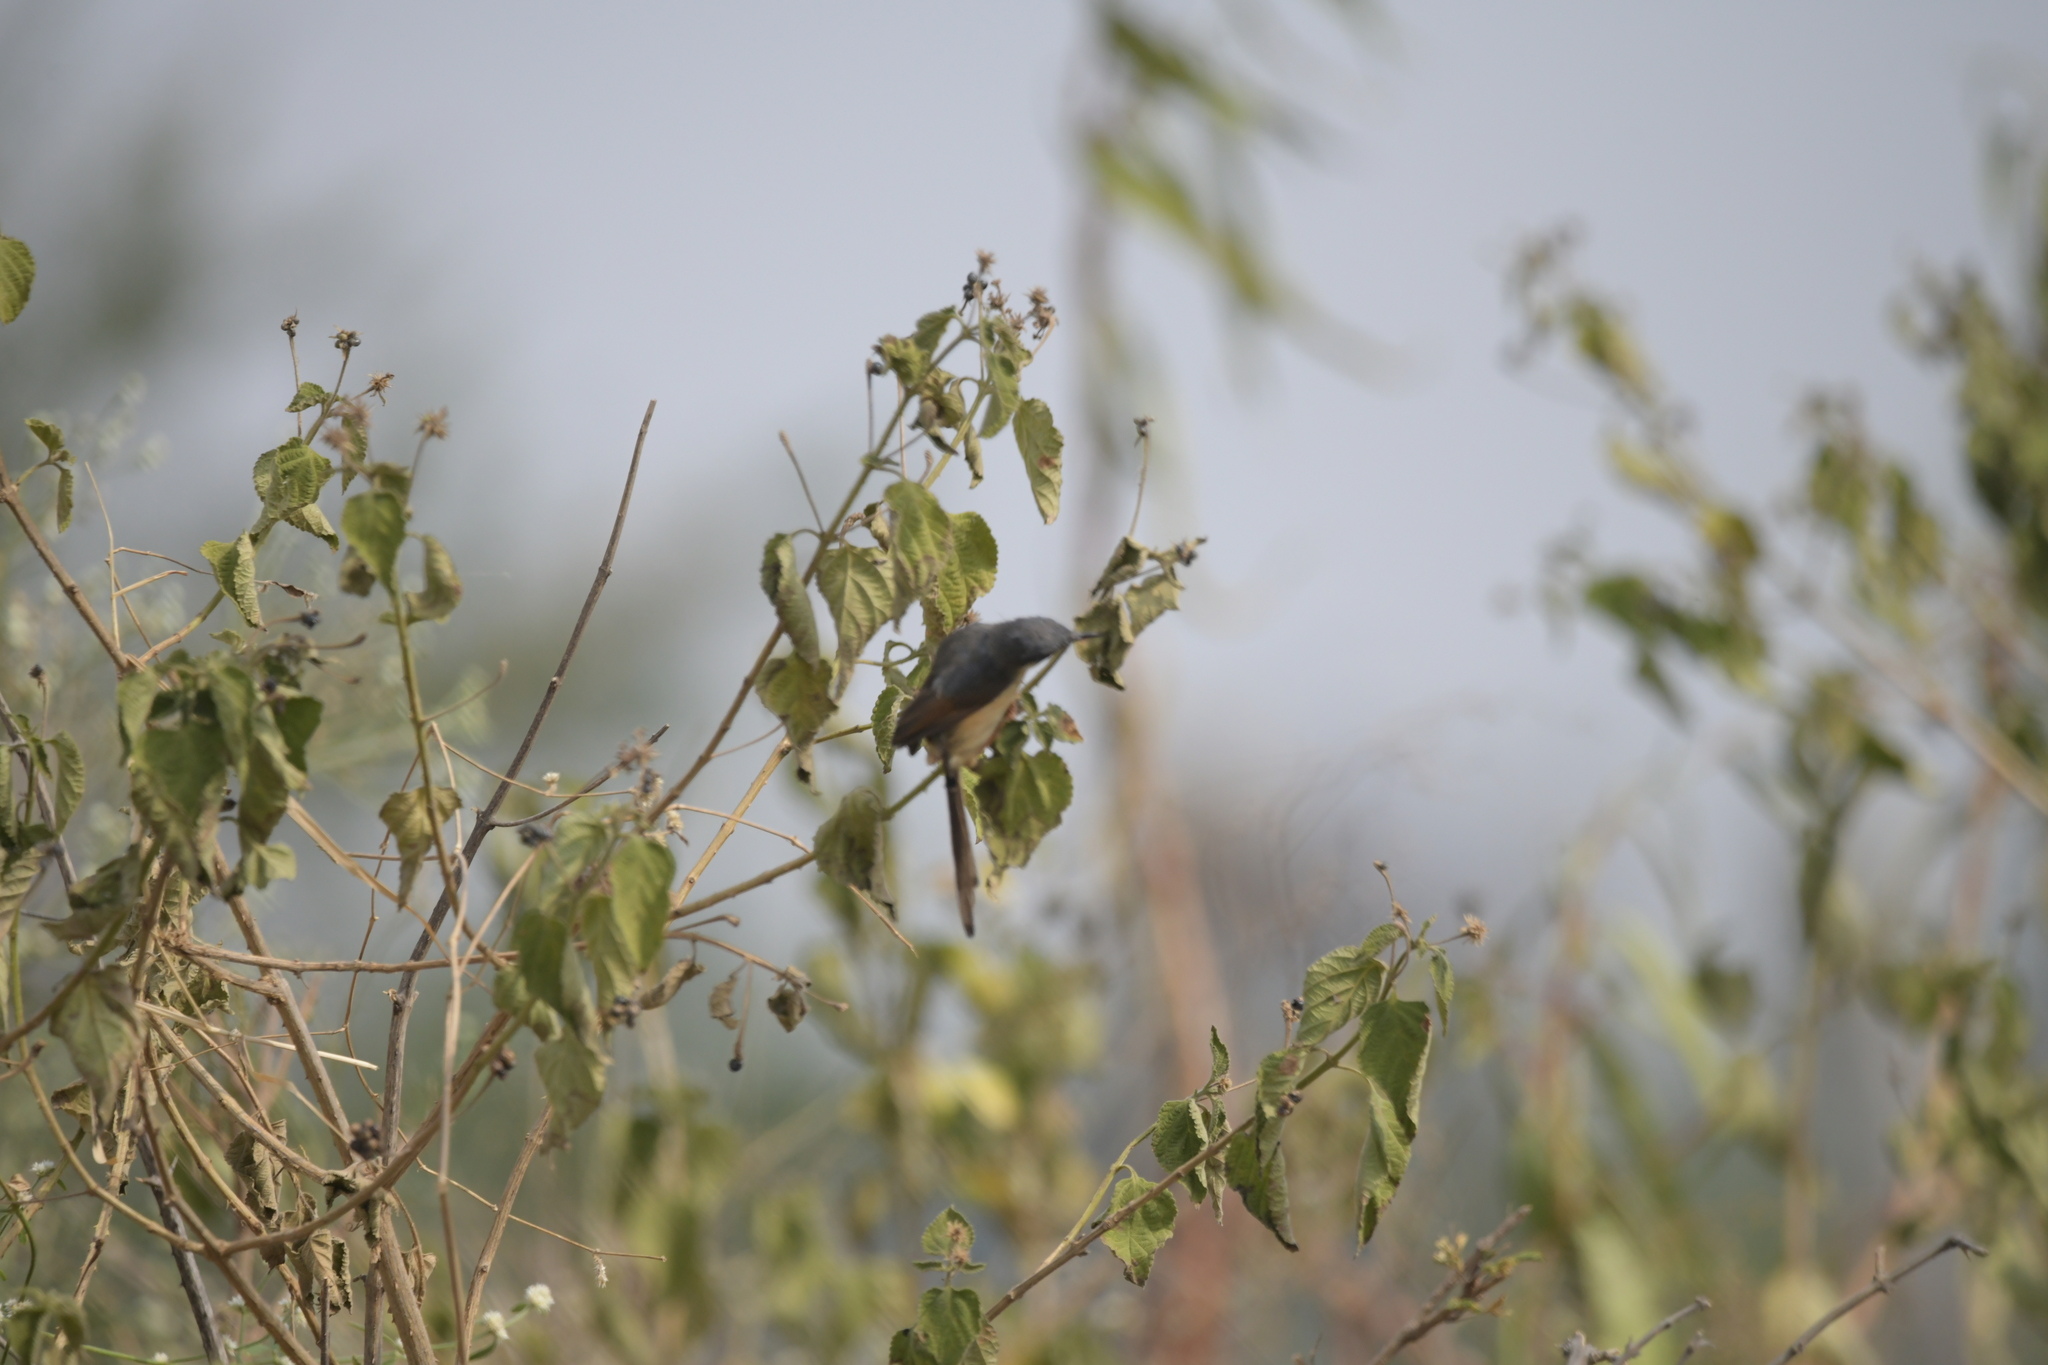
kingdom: Animalia
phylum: Chordata
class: Aves
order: Passeriformes
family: Cisticolidae
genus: Prinia
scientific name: Prinia socialis
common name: Ashy prinia
